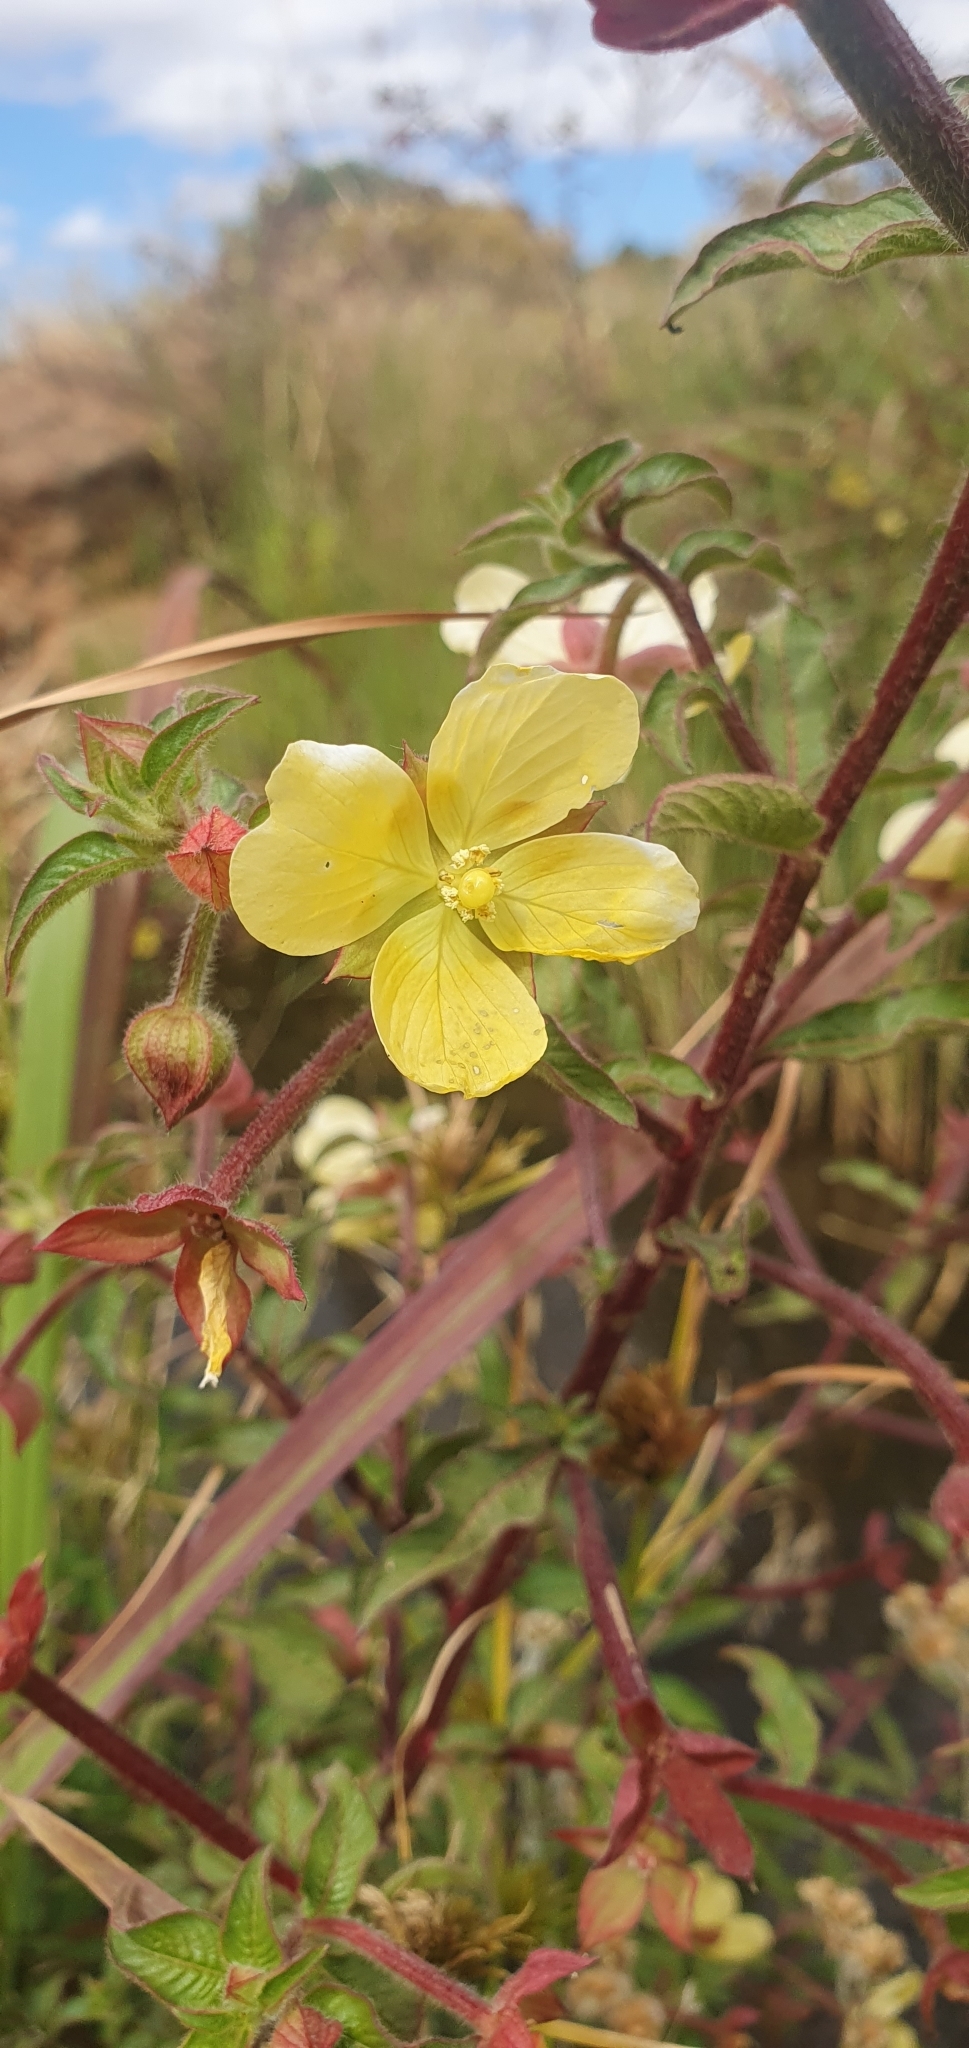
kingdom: Plantae
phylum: Tracheophyta
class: Magnoliopsida
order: Myrtales
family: Onagraceae
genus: Ludwigia
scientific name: Ludwigia octovalvis
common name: Water-primrose
